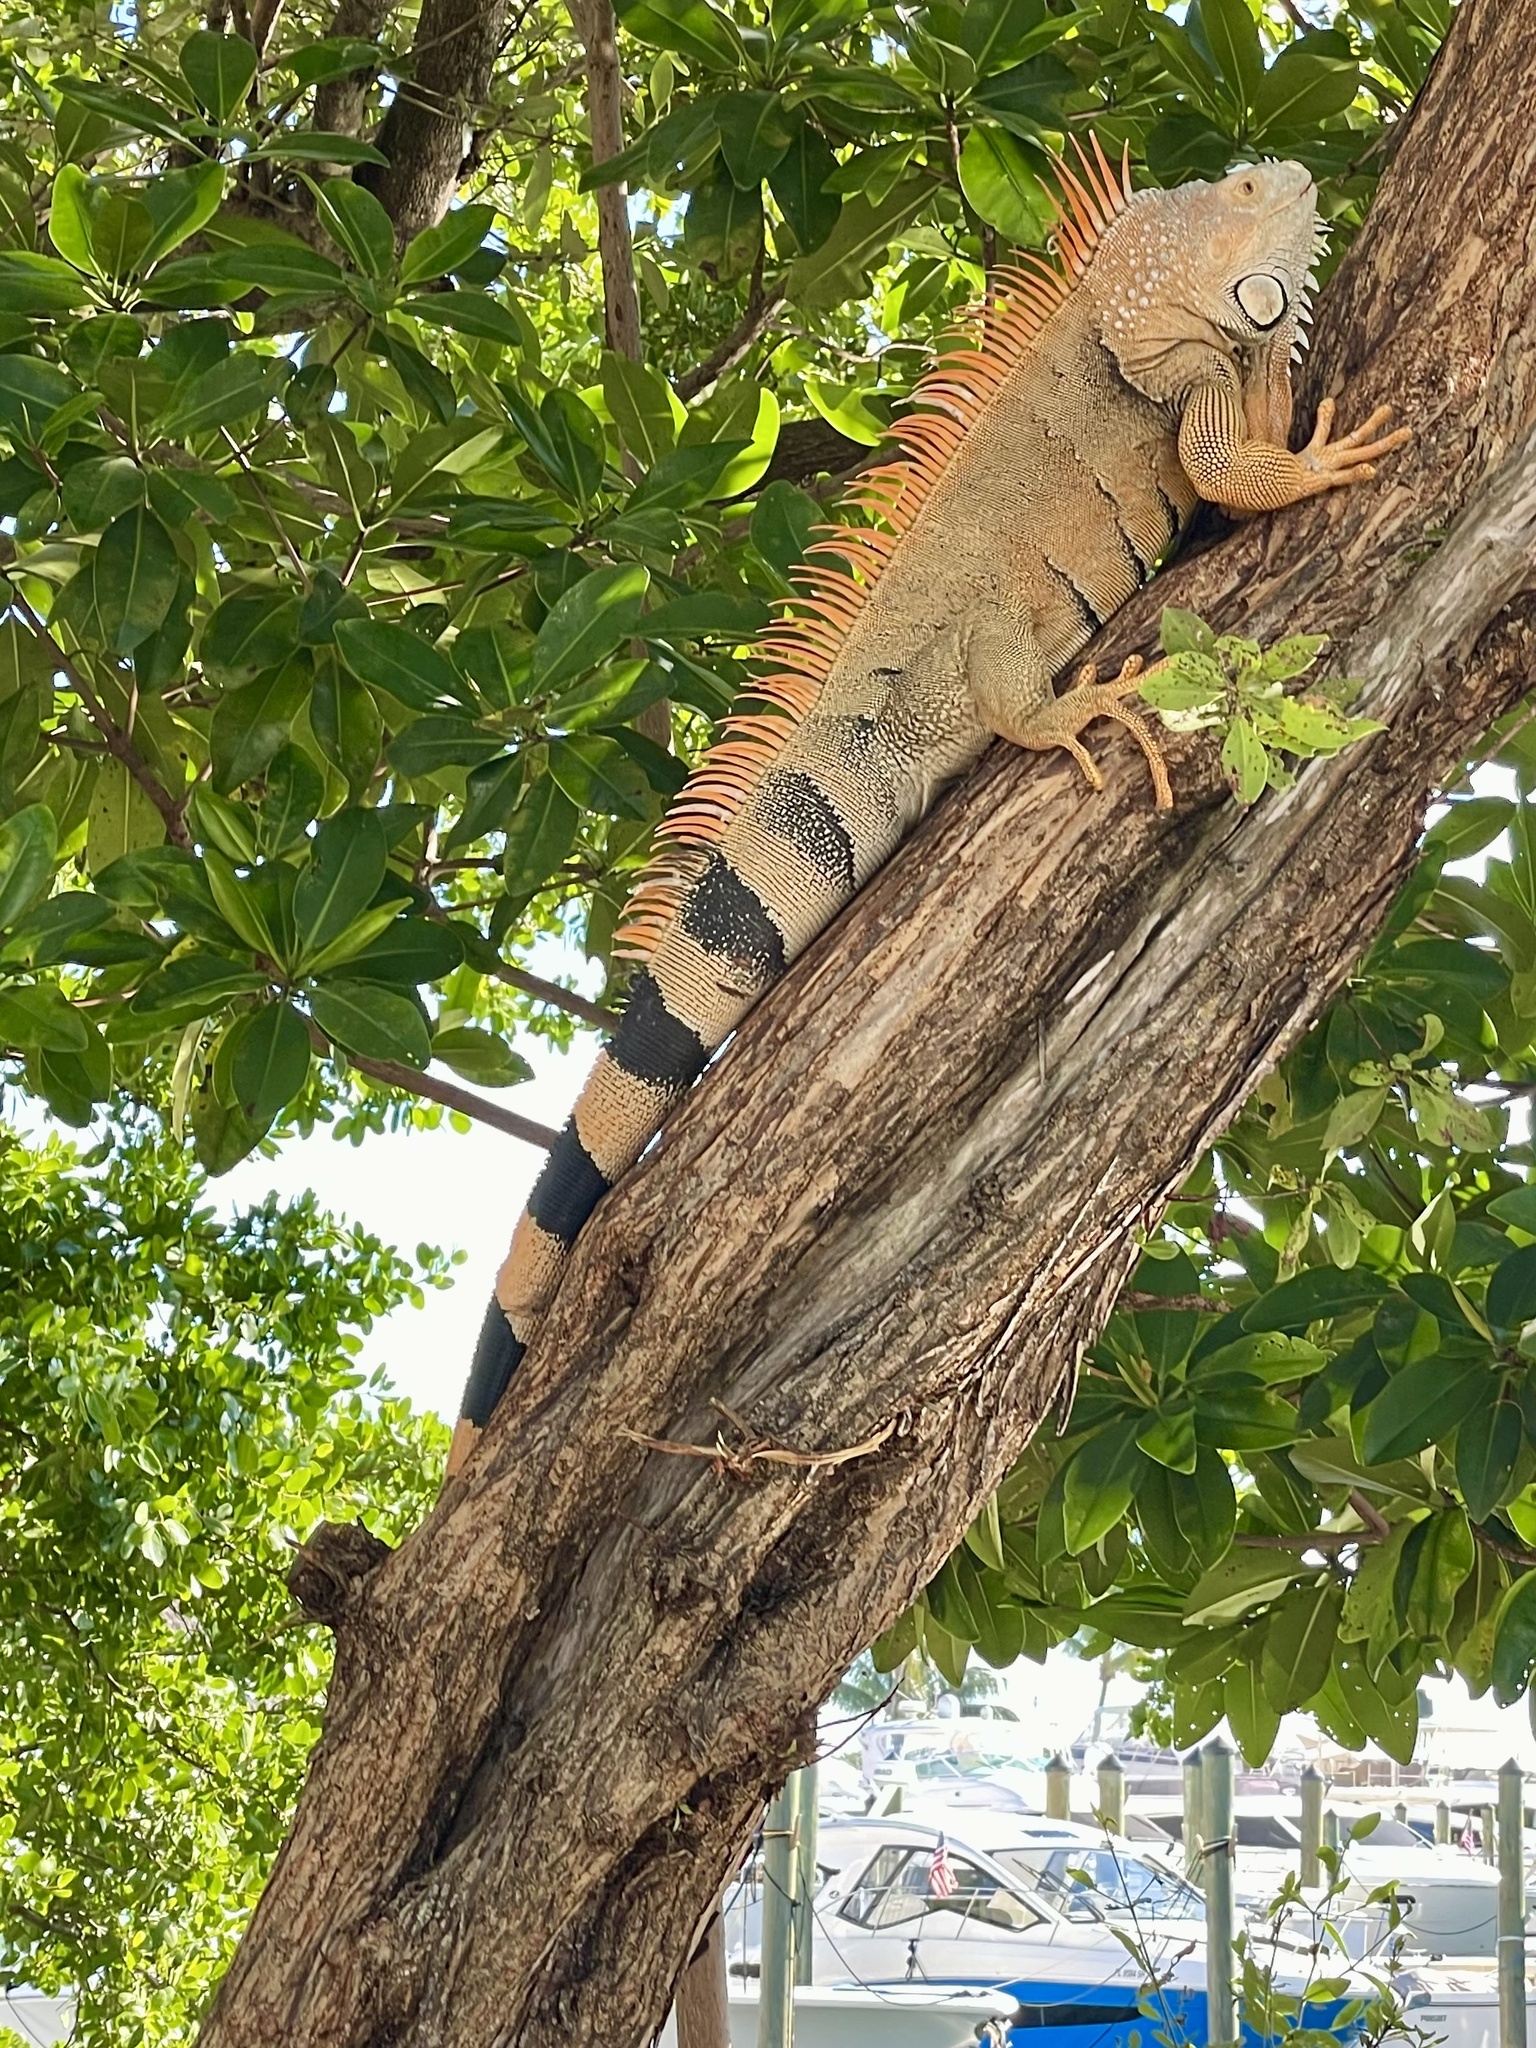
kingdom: Animalia
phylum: Chordata
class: Squamata
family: Iguanidae
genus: Iguana
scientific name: Iguana iguana
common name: Green iguana
